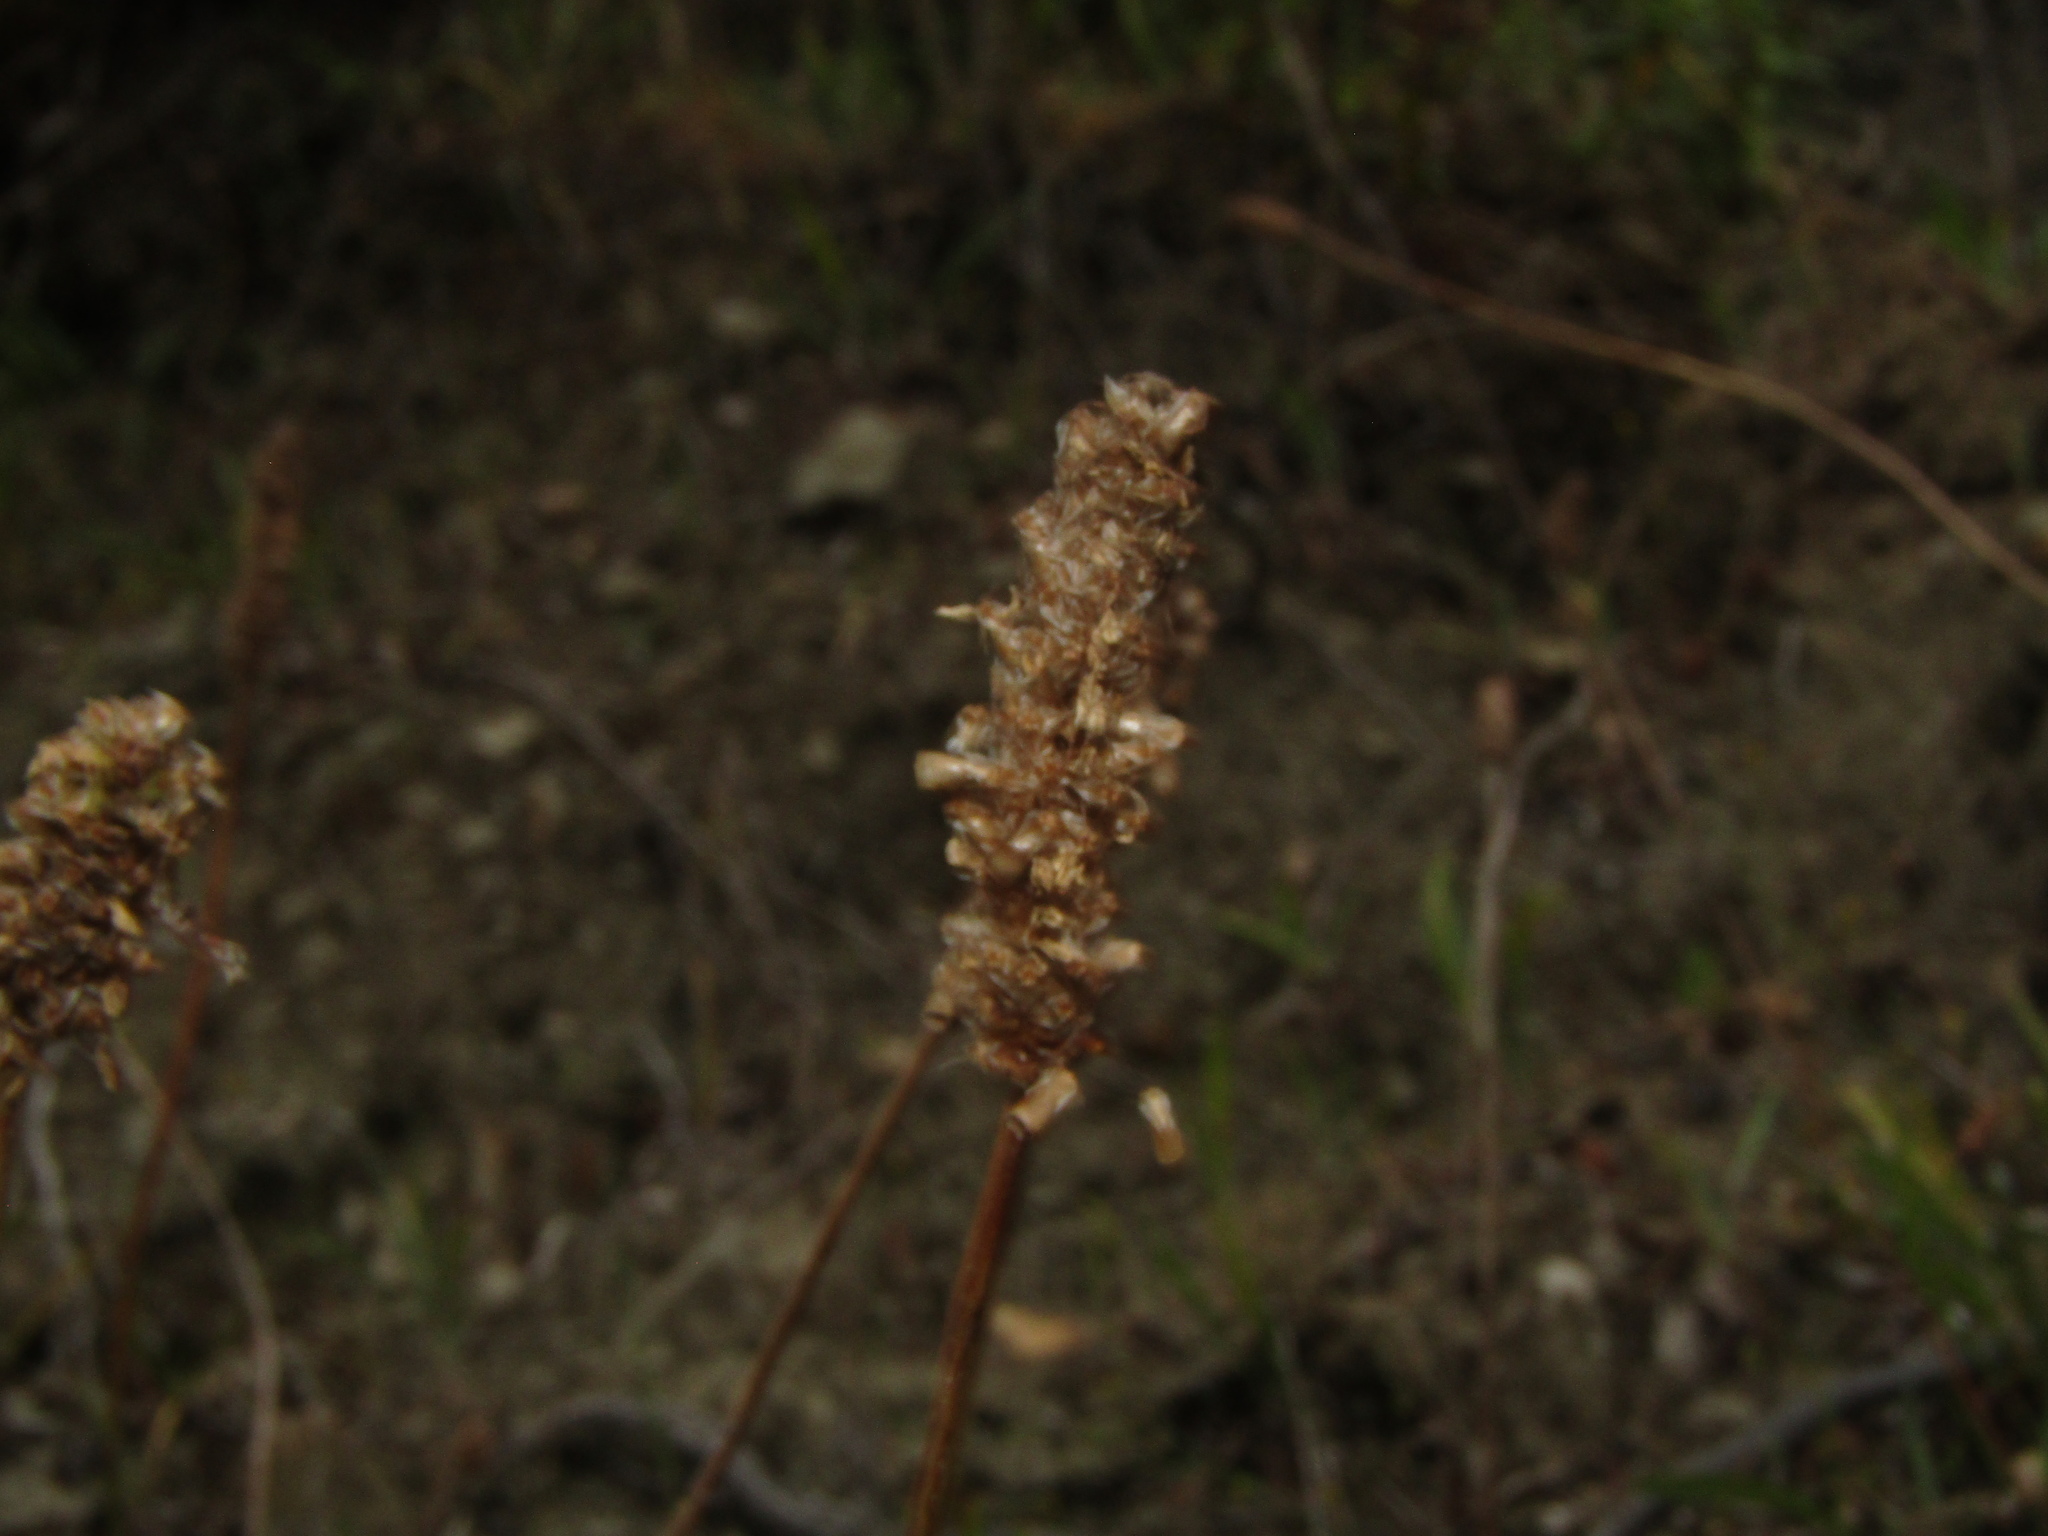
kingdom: Plantae
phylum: Tracheophyta
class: Magnoliopsida
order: Lamiales
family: Plantaginaceae
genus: Plantago
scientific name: Plantago lanceolata
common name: Ribwort plantain
